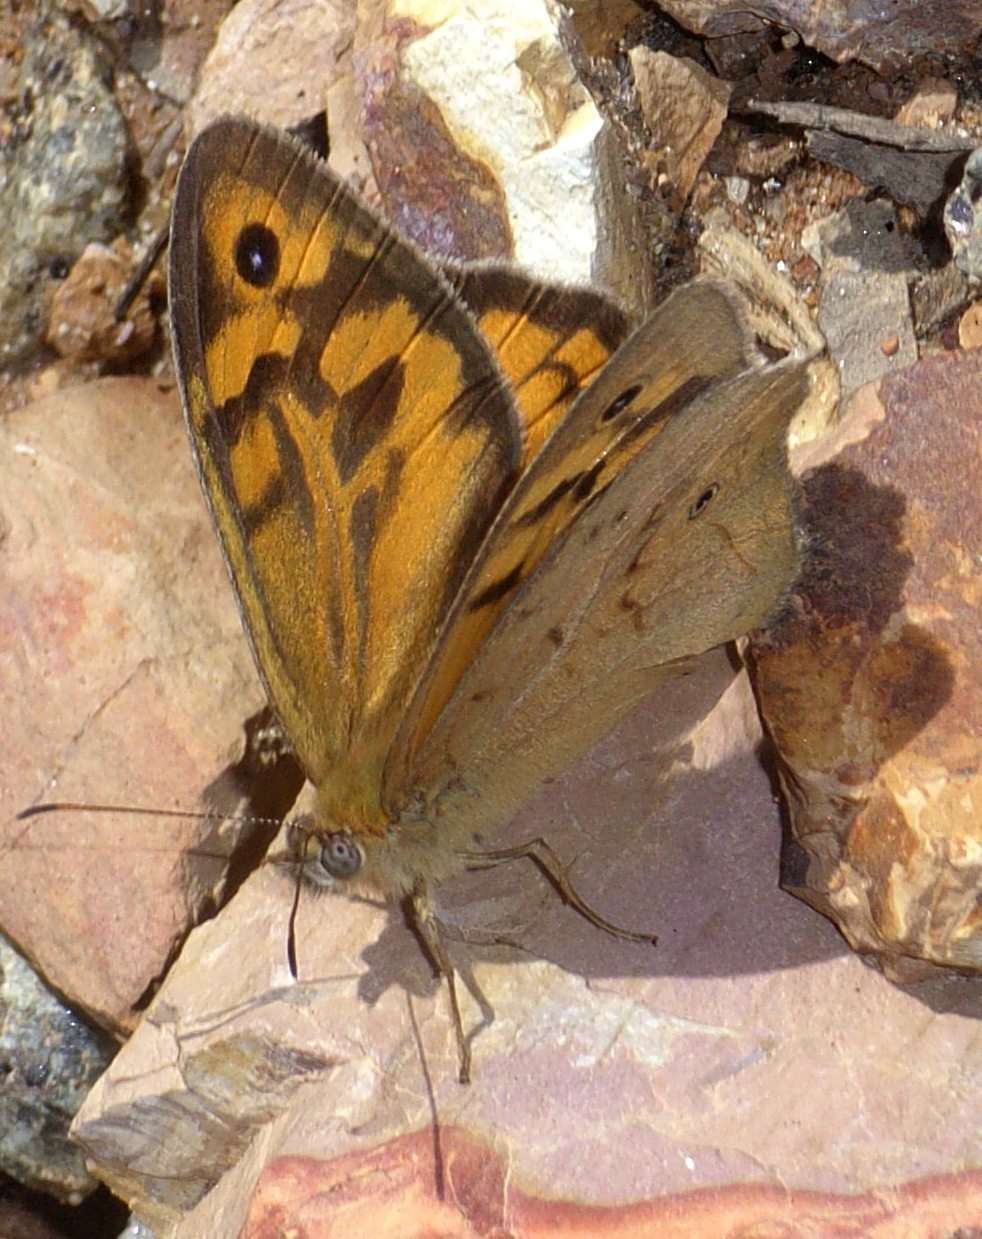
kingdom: Animalia
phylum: Arthropoda
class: Insecta
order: Lepidoptera
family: Nymphalidae
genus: Heteronympha
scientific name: Heteronympha merope
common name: Common brown
